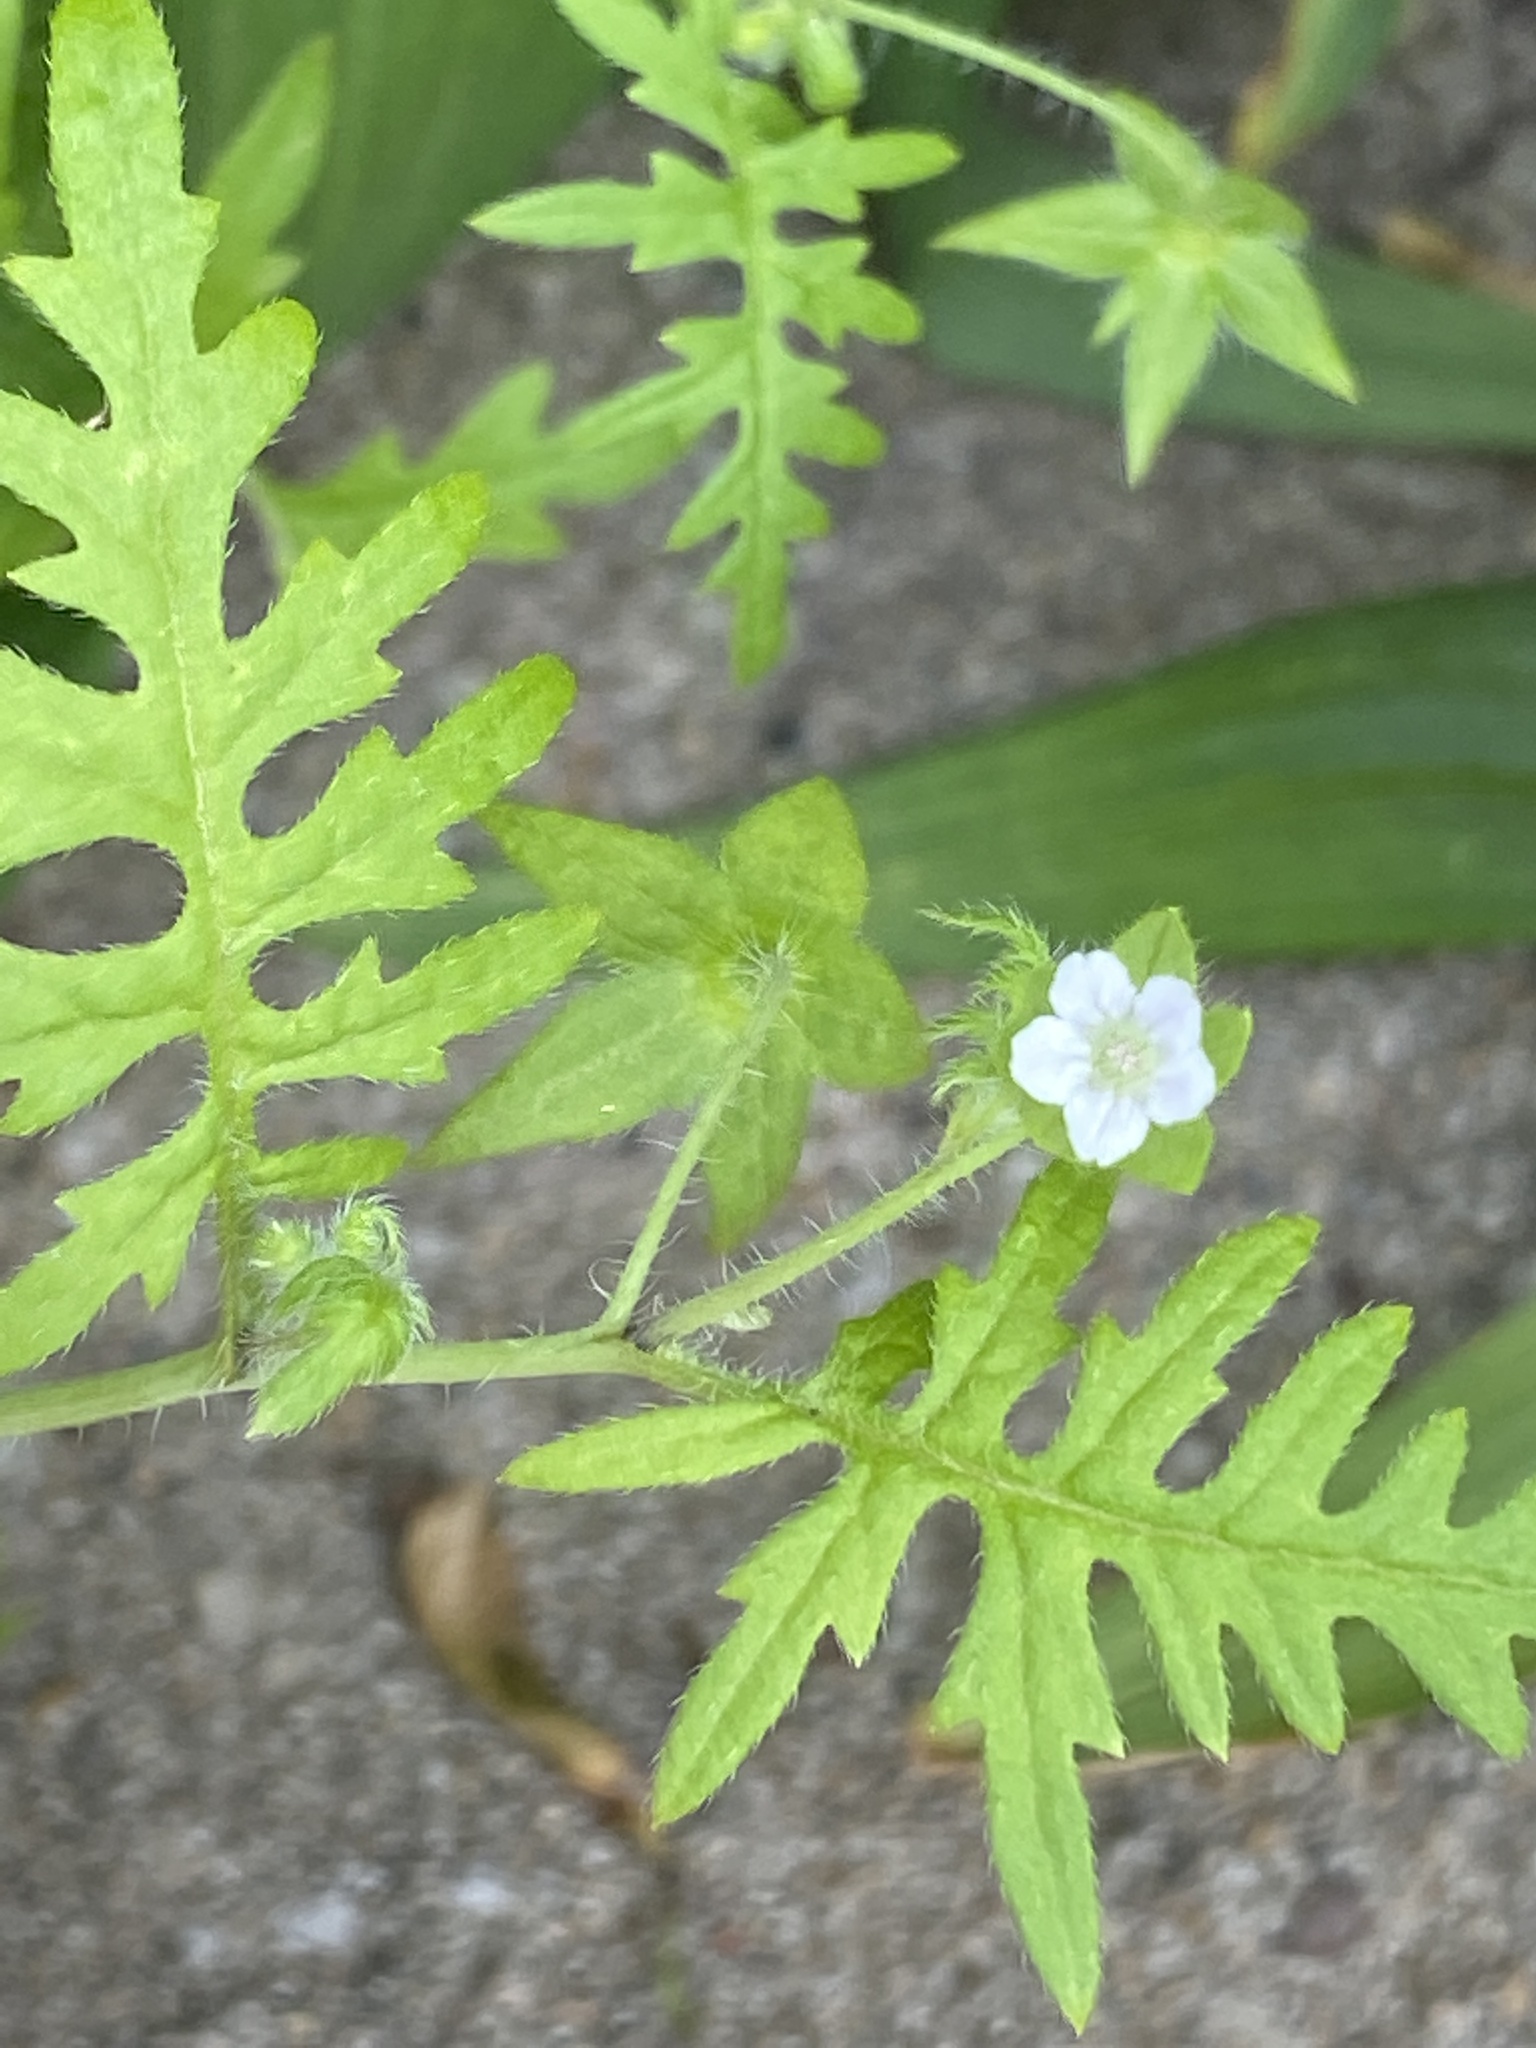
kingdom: Plantae
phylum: Tracheophyta
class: Magnoliopsida
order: Boraginales
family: Hydrophyllaceae
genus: Ellisia
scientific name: Ellisia nyctelea
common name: Aunt lucy
